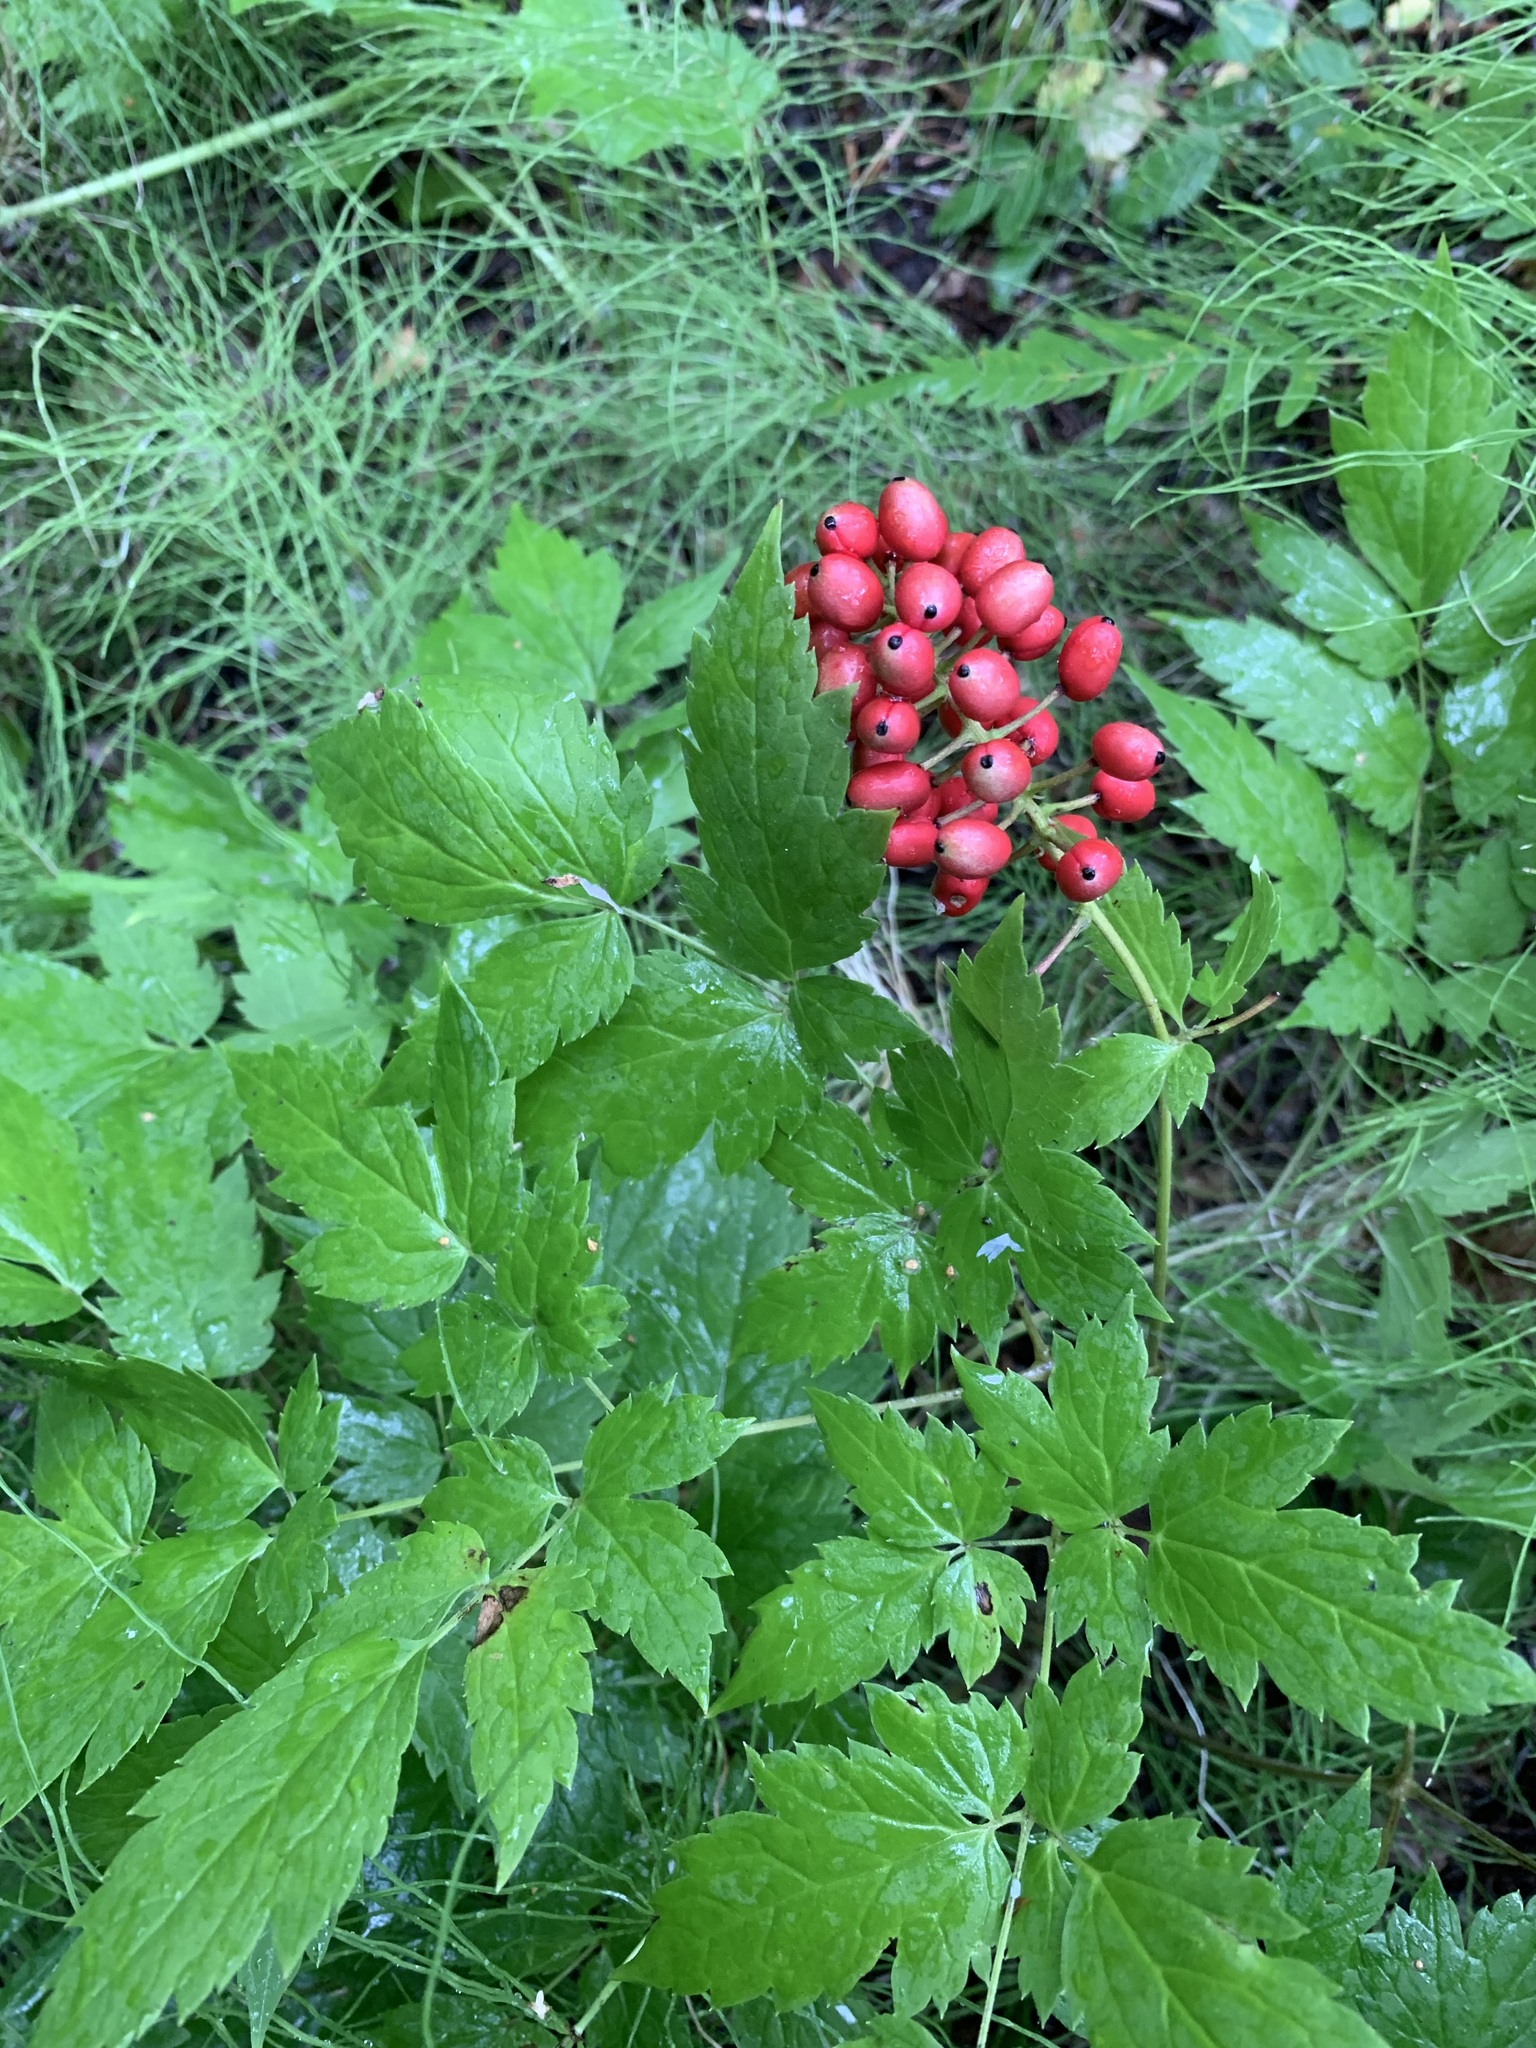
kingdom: Plantae
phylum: Tracheophyta
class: Magnoliopsida
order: Ranunculales
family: Ranunculaceae
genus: Actaea
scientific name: Actaea erythrocarpa
